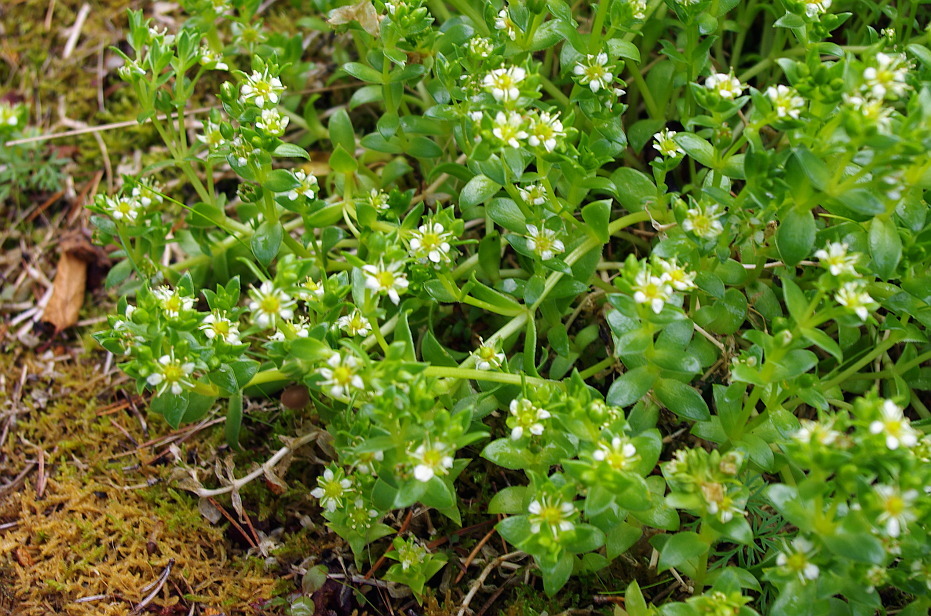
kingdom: Plantae
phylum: Tracheophyta
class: Magnoliopsida
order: Caryophyllales
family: Caryophyllaceae
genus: Honckenya
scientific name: Honckenya peploides
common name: Sea sandwort
